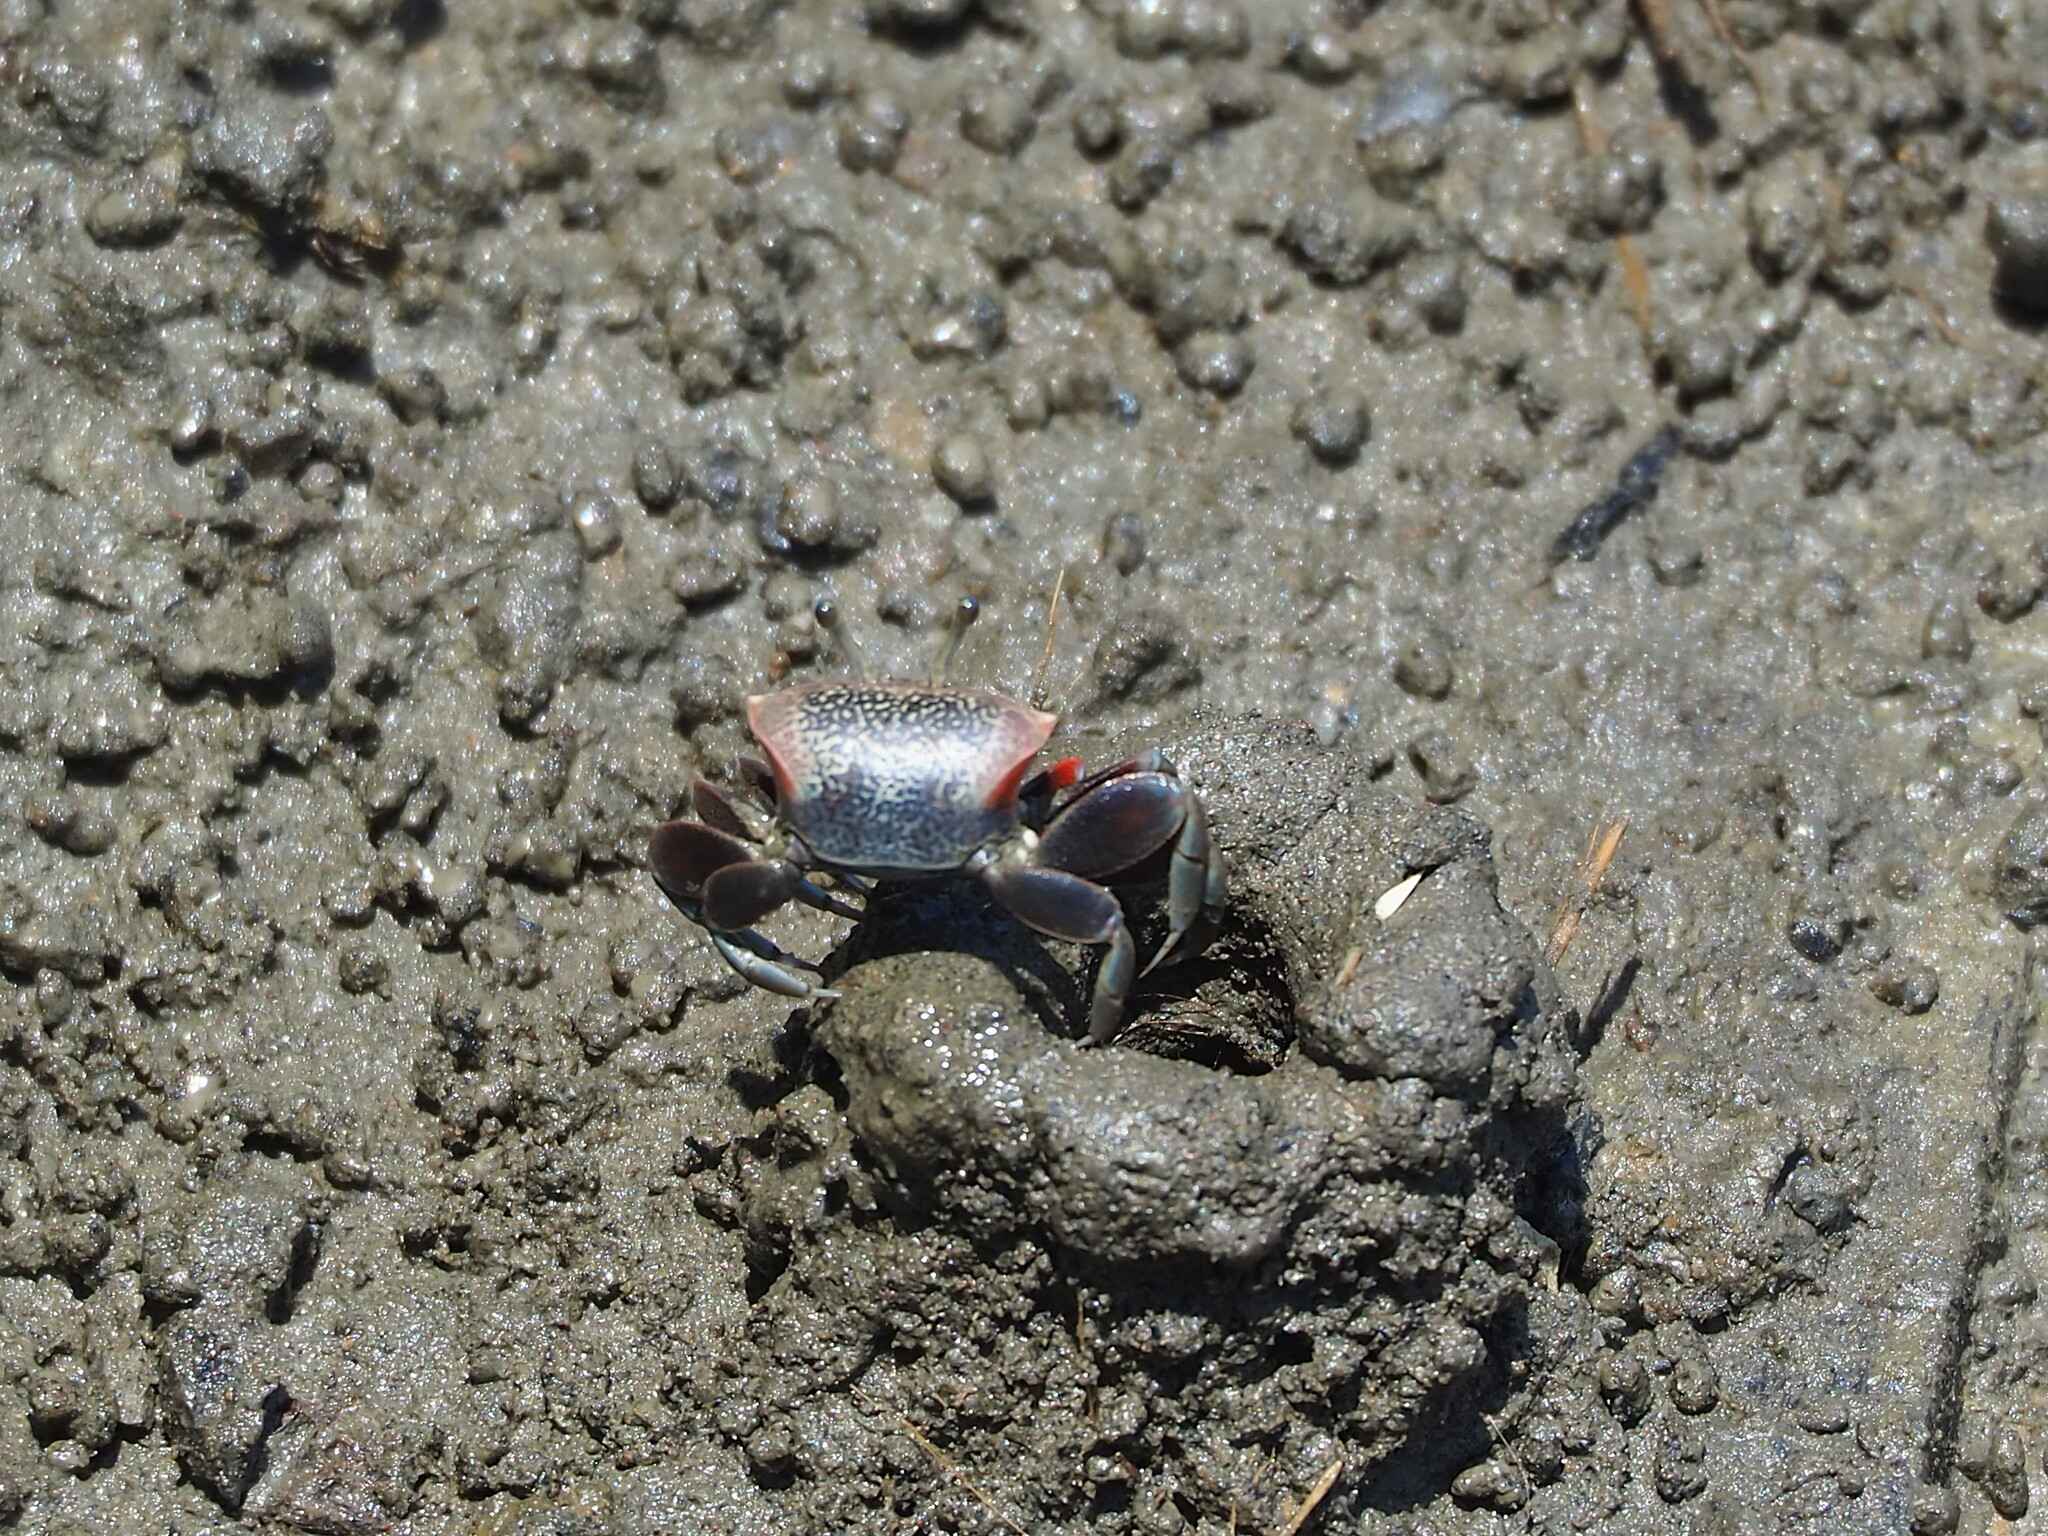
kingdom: Animalia
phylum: Arthropoda
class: Malacostraca
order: Decapoda
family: Ocypodidae
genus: Tubuca
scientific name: Tubuca arcuata
